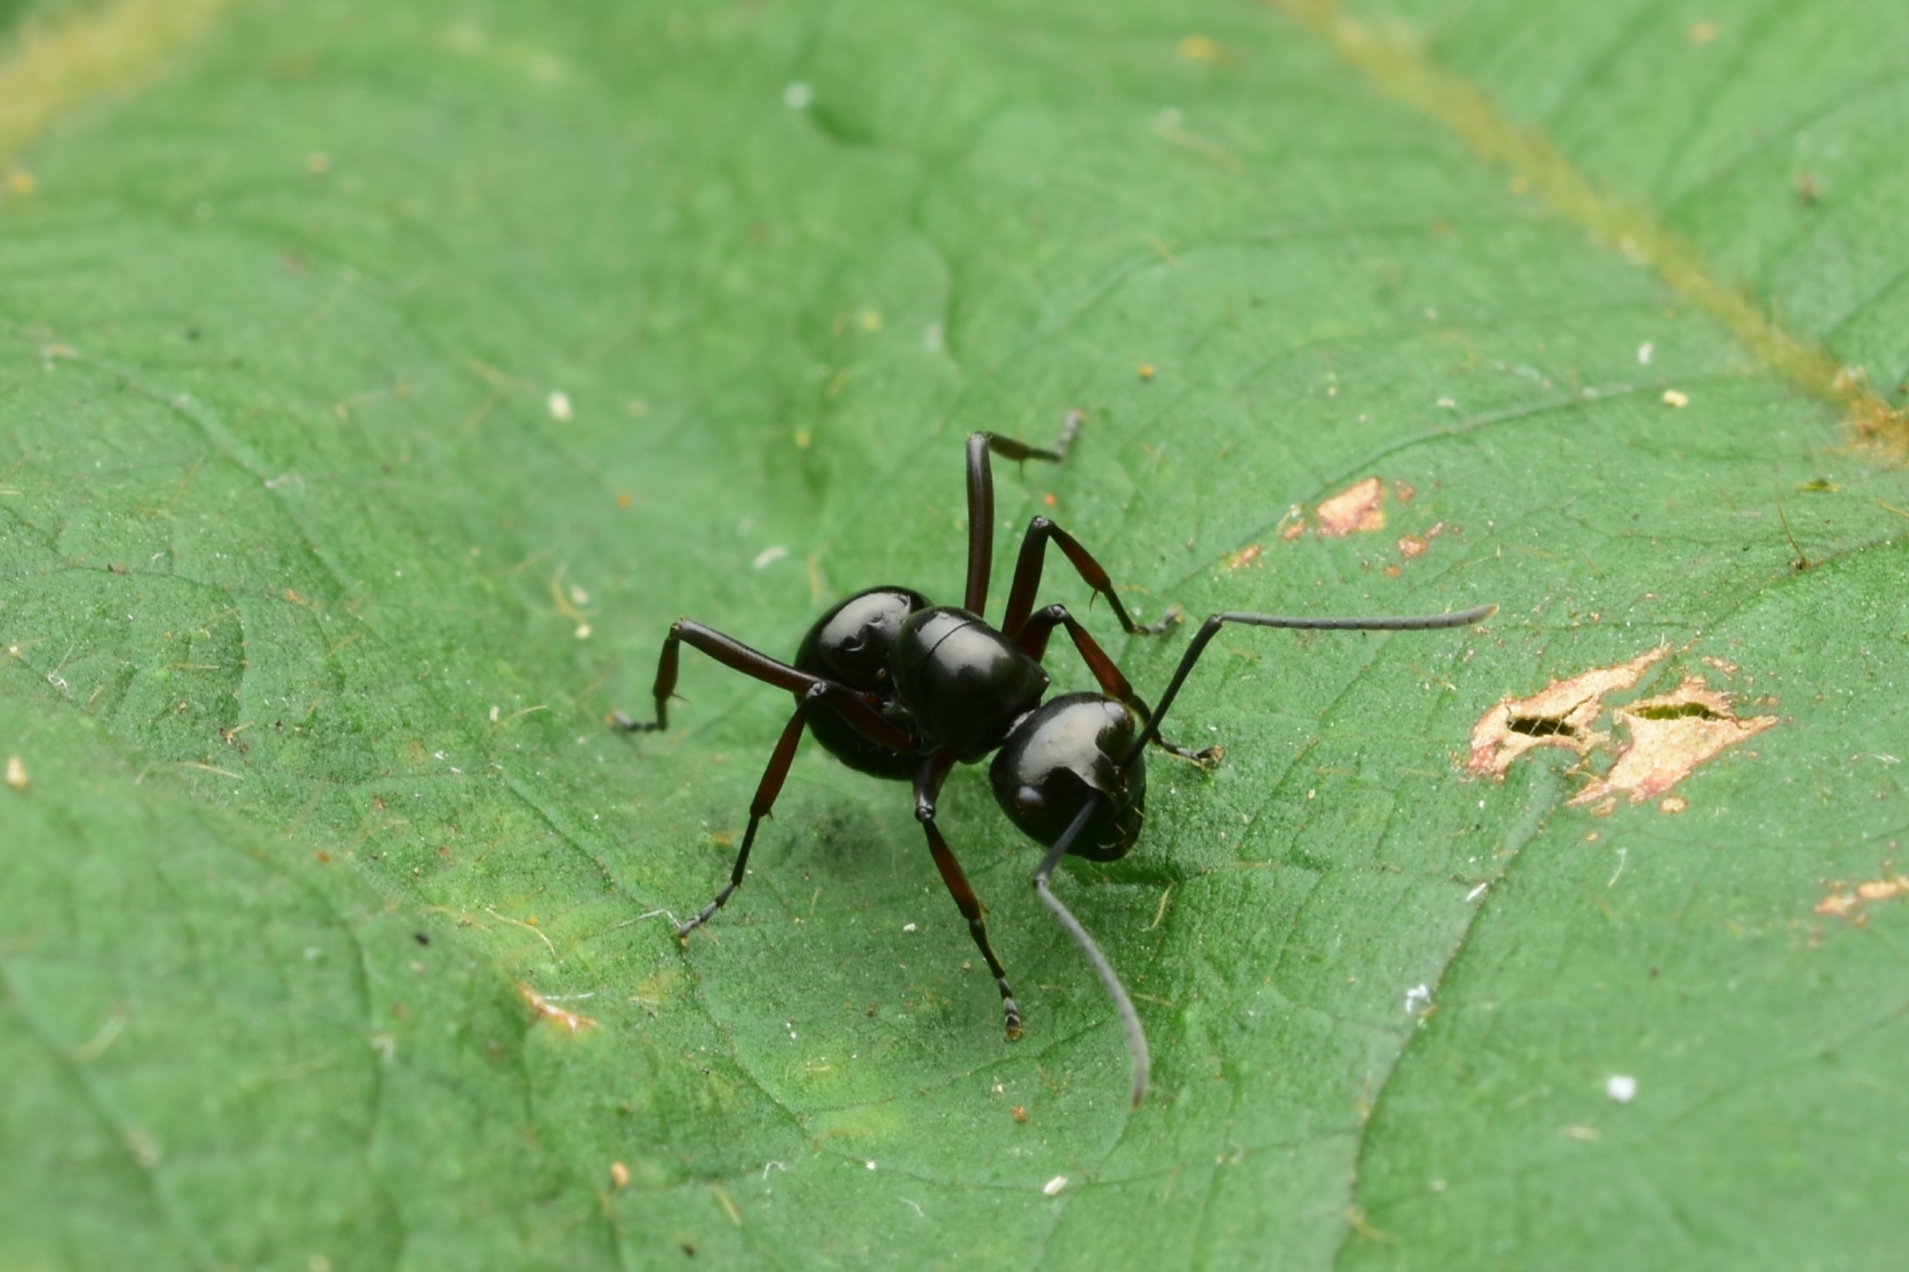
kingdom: Animalia
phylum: Arthropoda
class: Insecta
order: Hymenoptera
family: Formicidae
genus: Polyrhachis
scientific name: Polyrhachis robsoni
